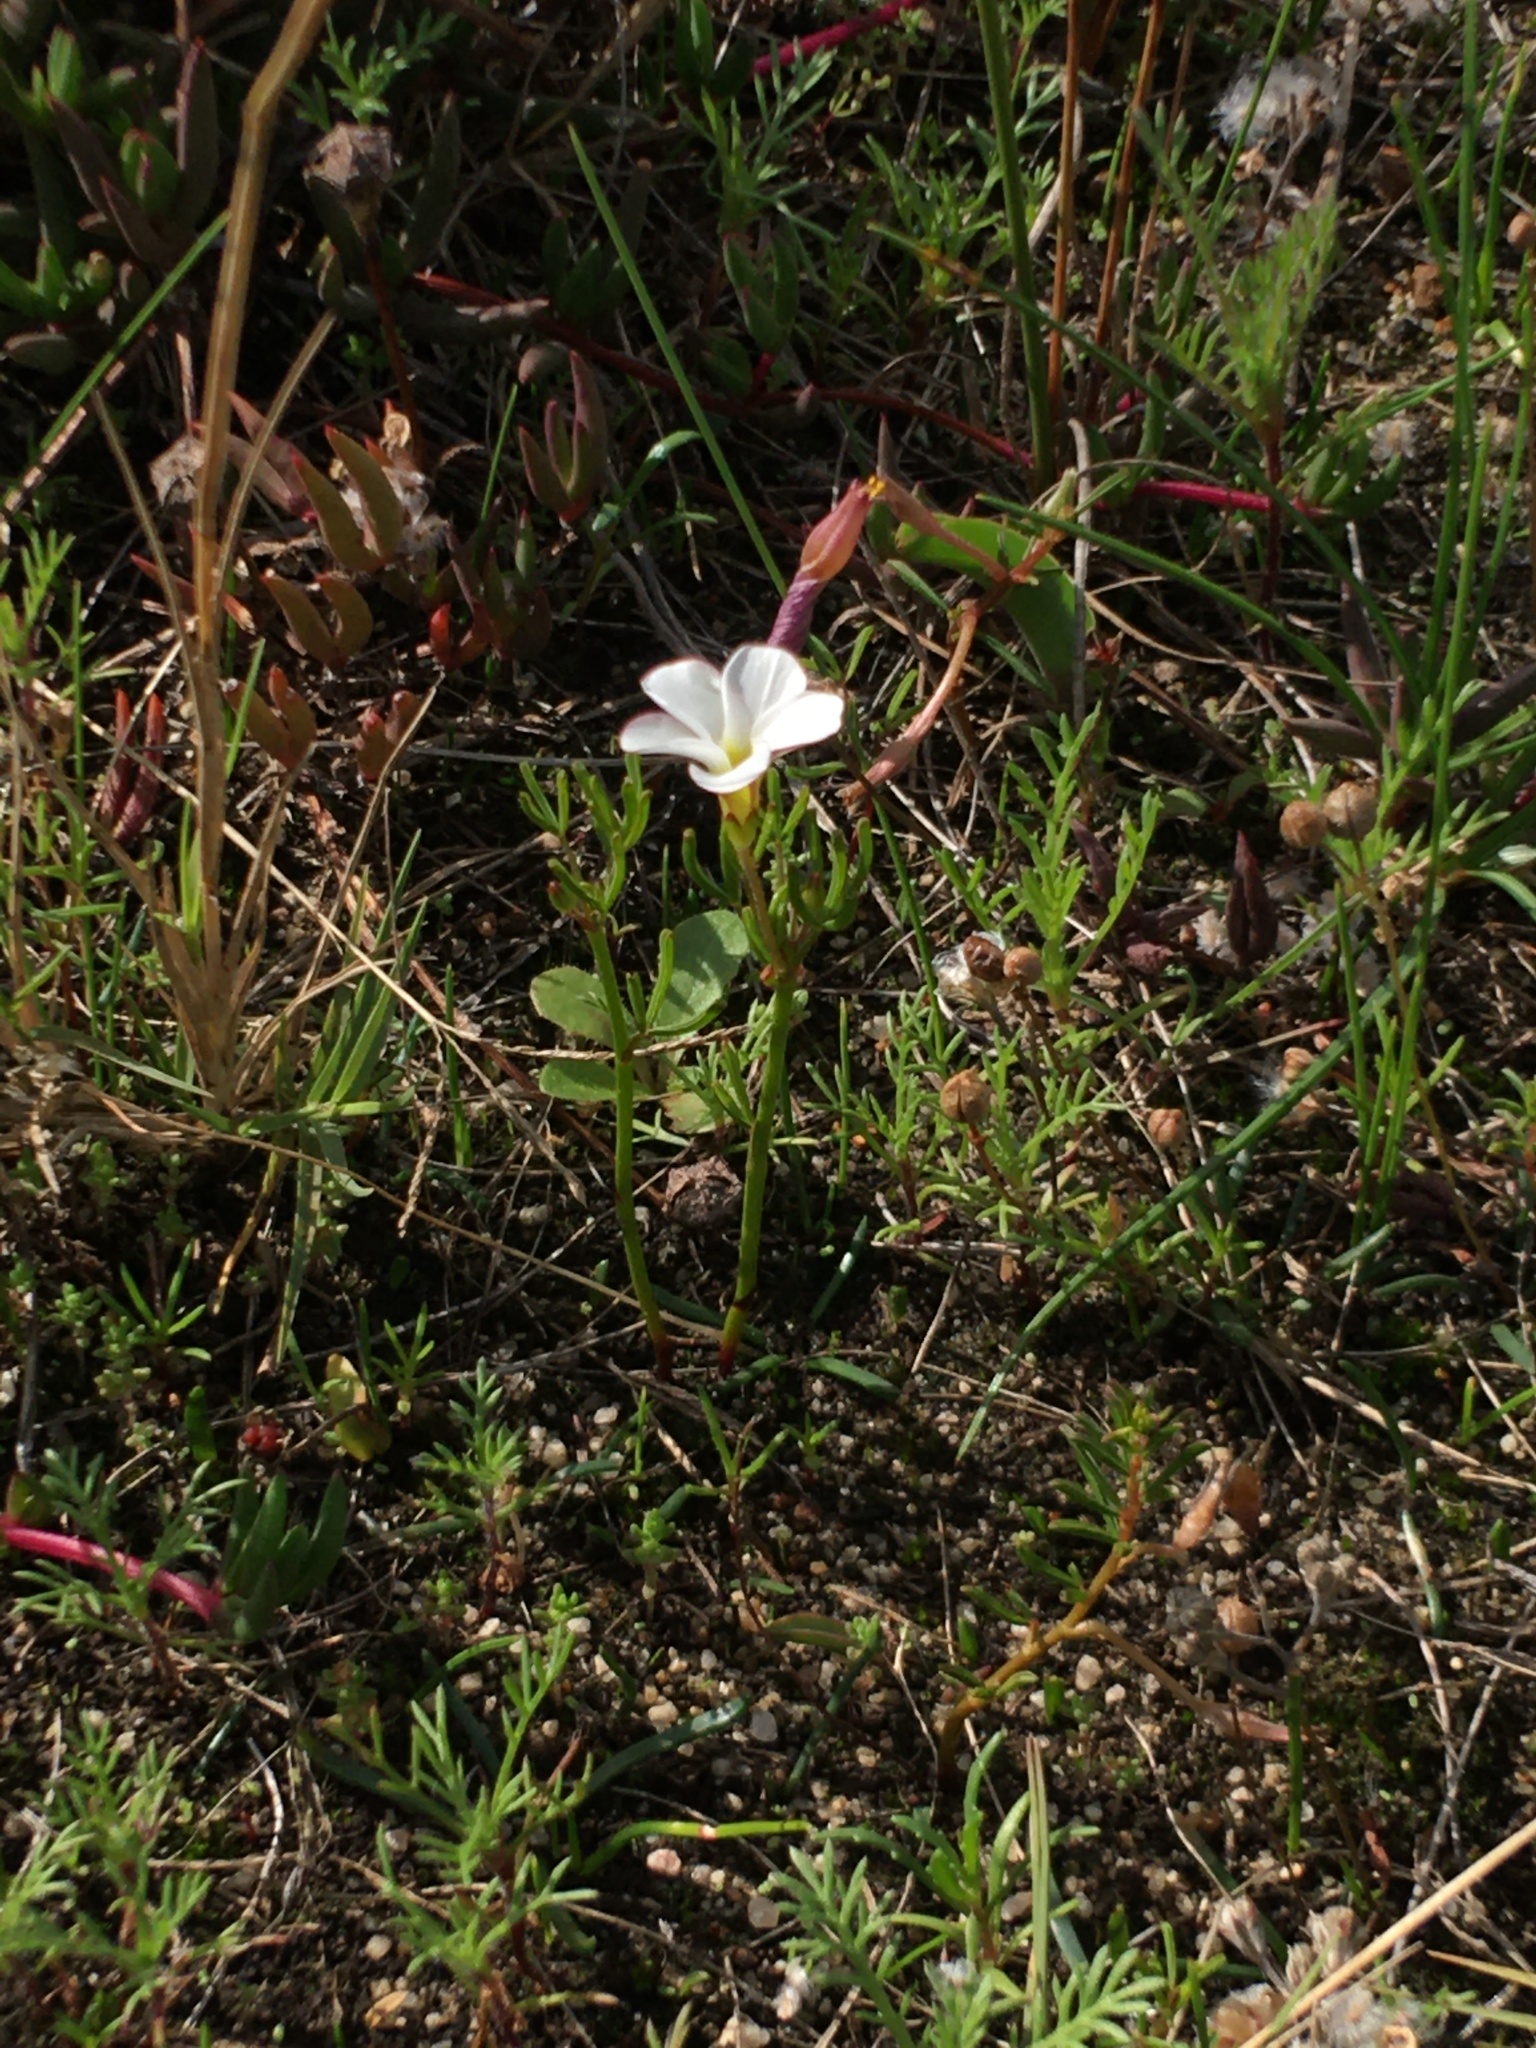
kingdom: Plantae
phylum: Tracheophyta
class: Magnoliopsida
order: Oxalidales
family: Oxalidaceae
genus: Oxalis
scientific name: Oxalis versicolor
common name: Peppermint rock oxalis
